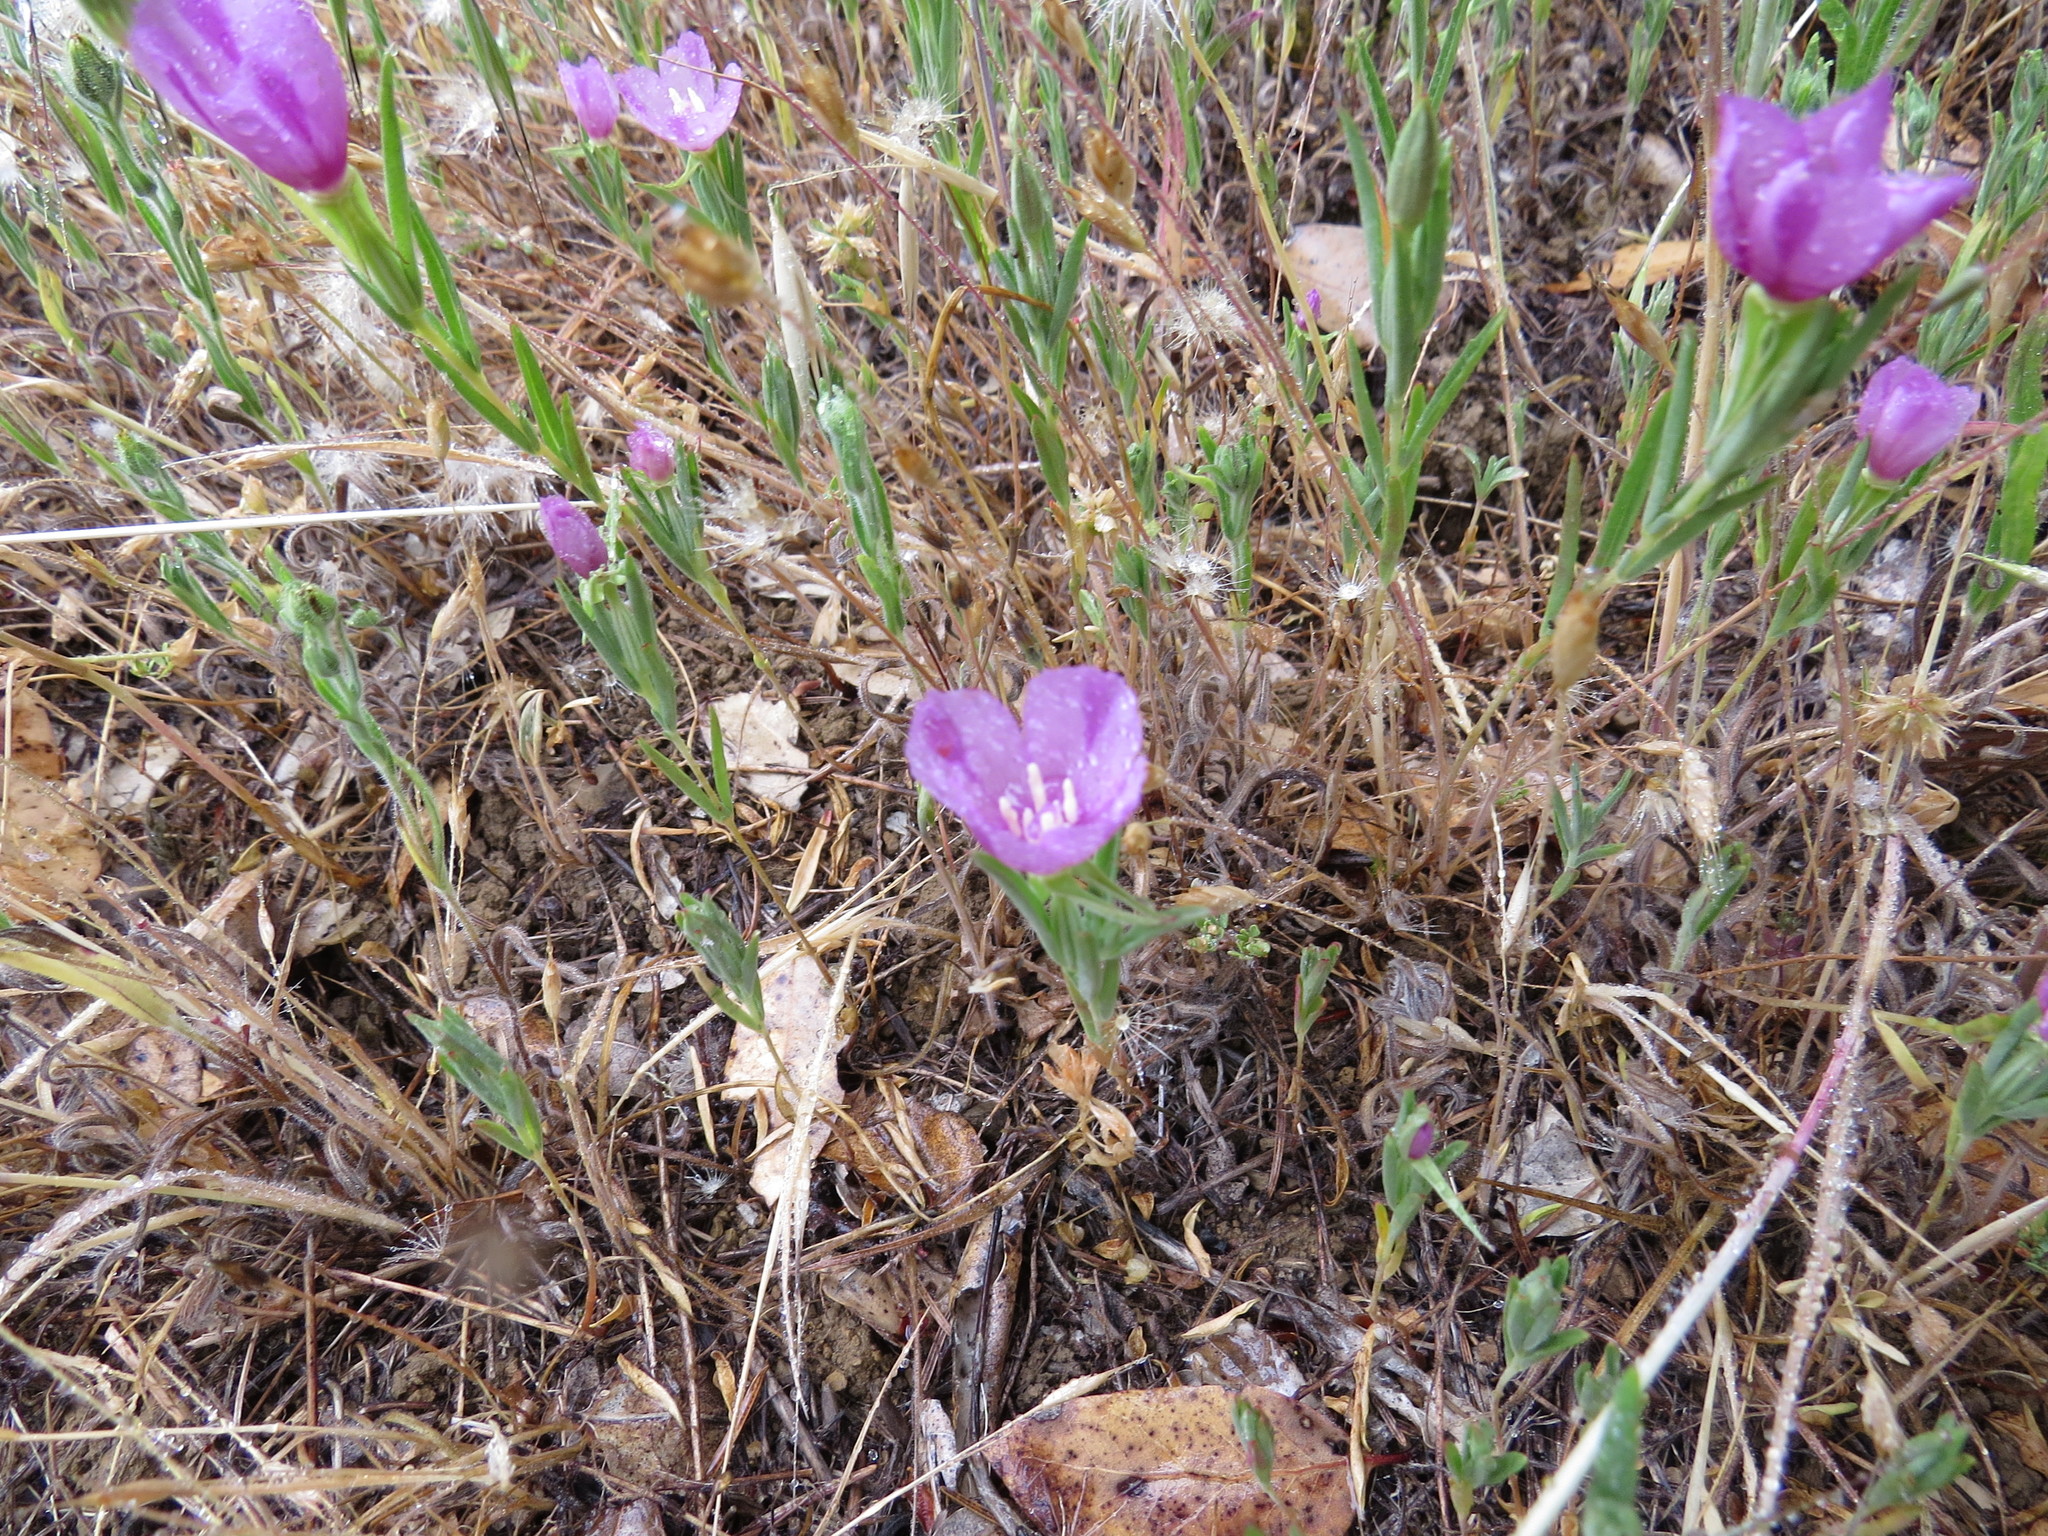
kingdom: Plantae
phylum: Tracheophyta
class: Magnoliopsida
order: Myrtales
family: Onagraceae
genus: Clarkia
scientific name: Clarkia purpurea
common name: Purple clarkia
